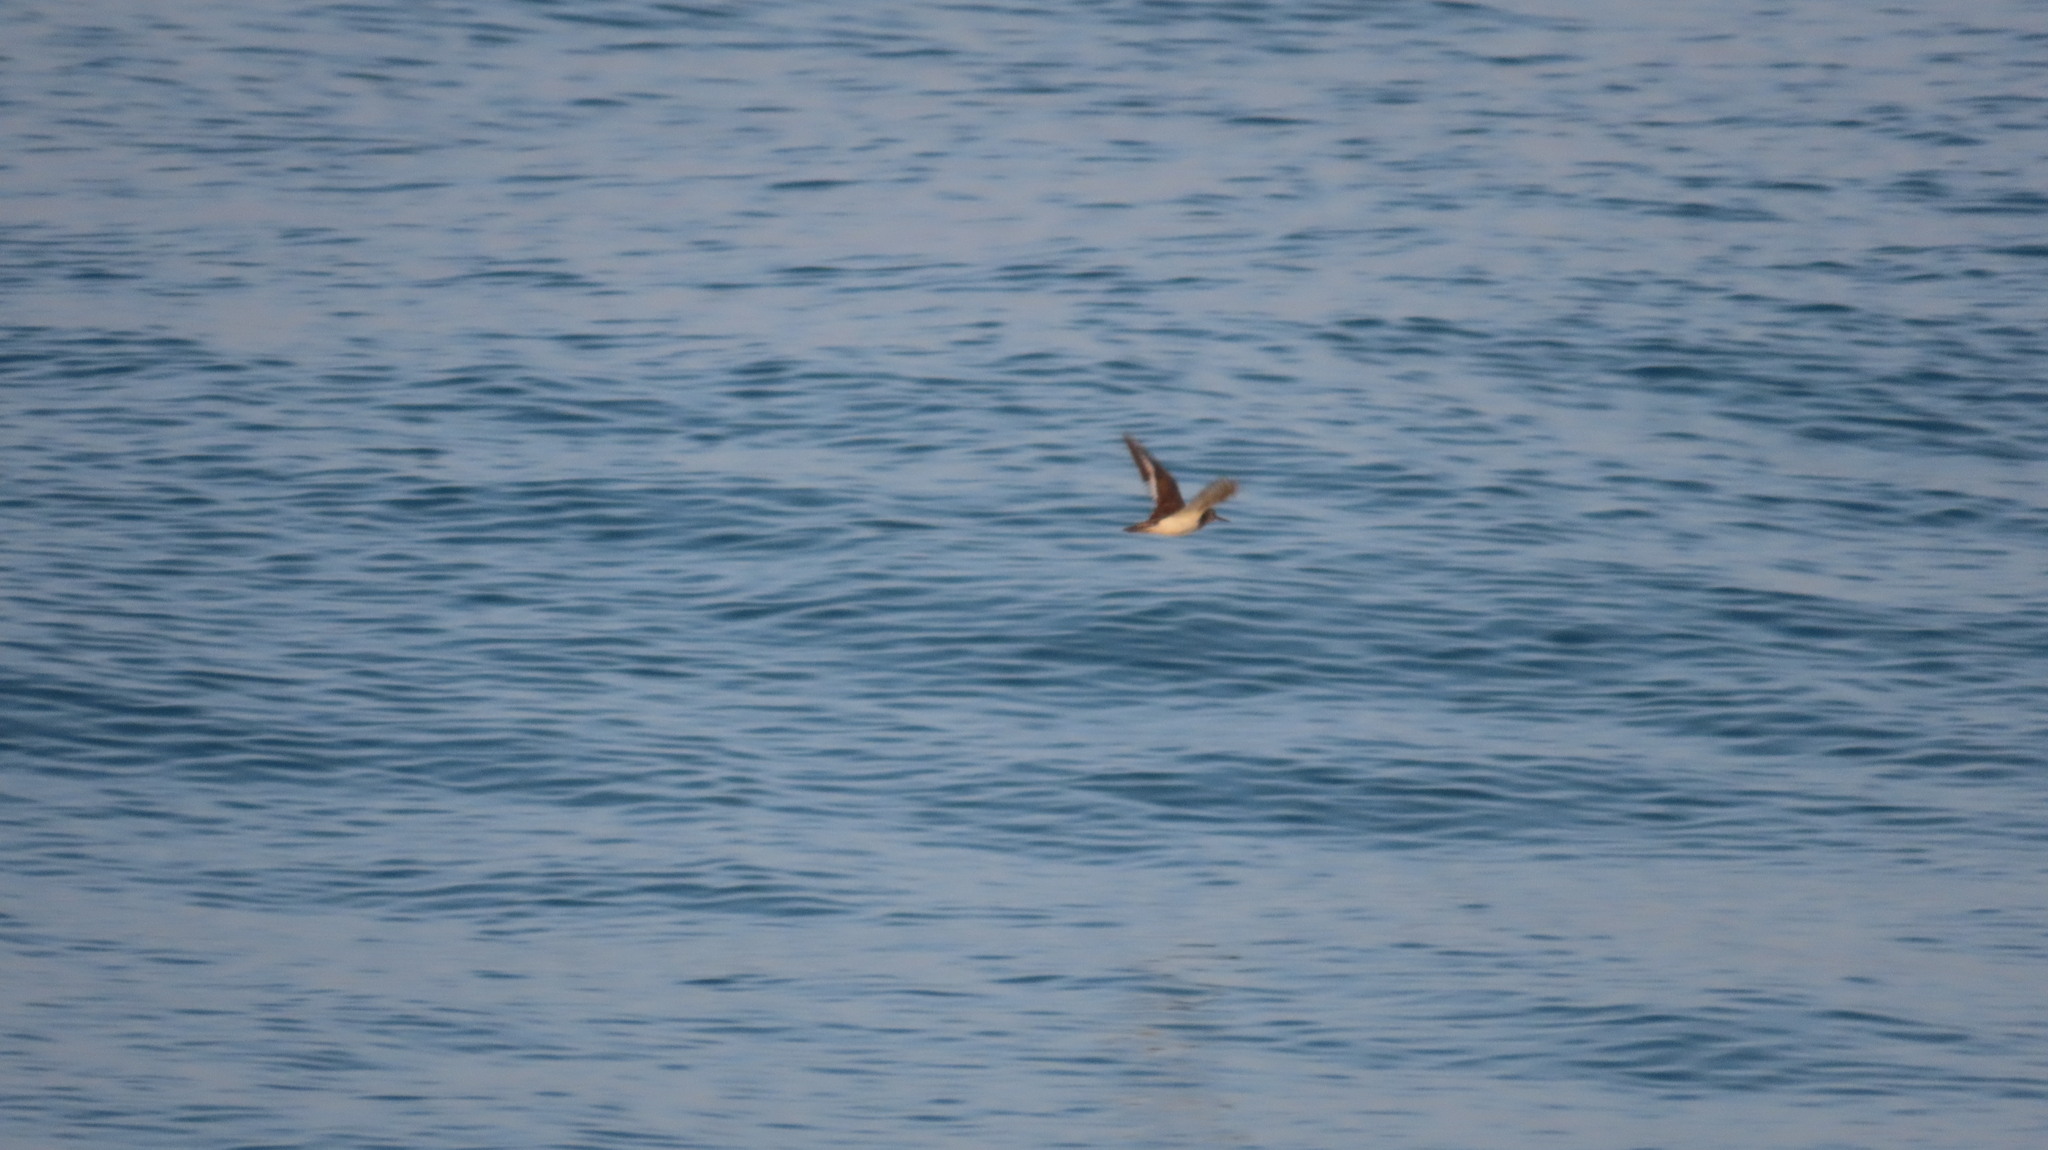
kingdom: Animalia
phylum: Chordata
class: Aves
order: Charadriiformes
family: Scolopacidae
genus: Actitis
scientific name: Actitis hypoleucos
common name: Common sandpiper
